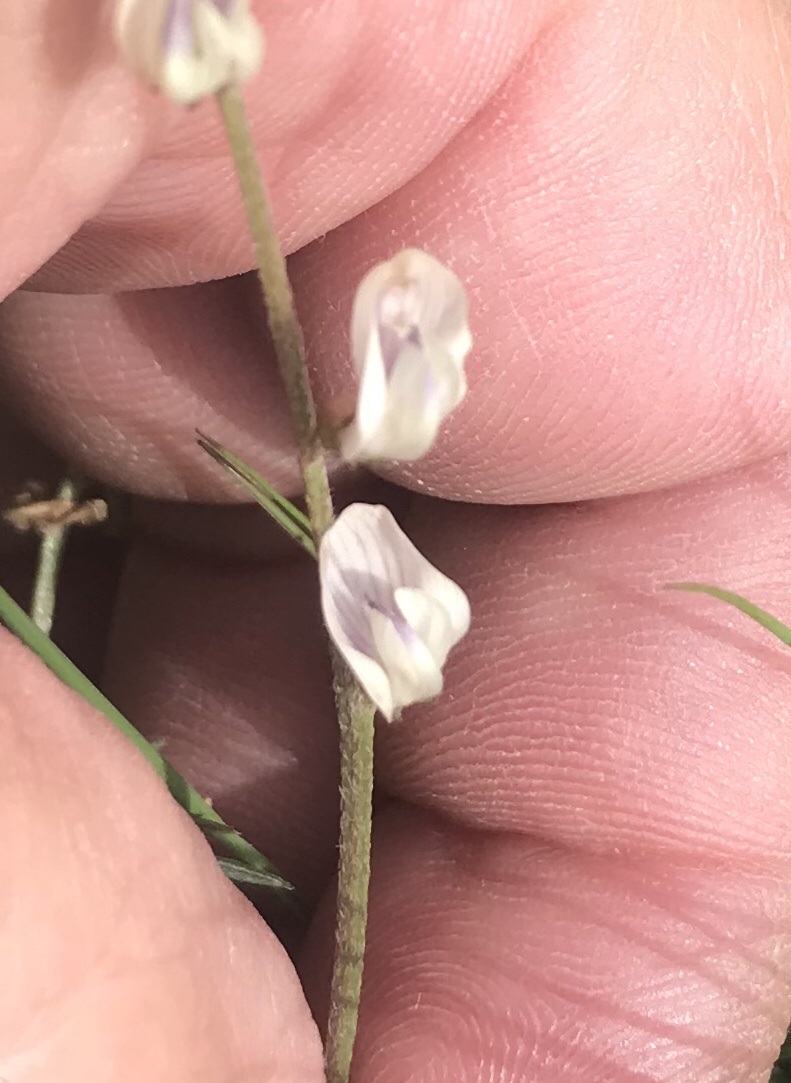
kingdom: Plantae
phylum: Tracheophyta
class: Magnoliopsida
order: Fabales
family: Fabaceae
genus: Astragalus
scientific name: Astragalus miser
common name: Timber milkvetch
